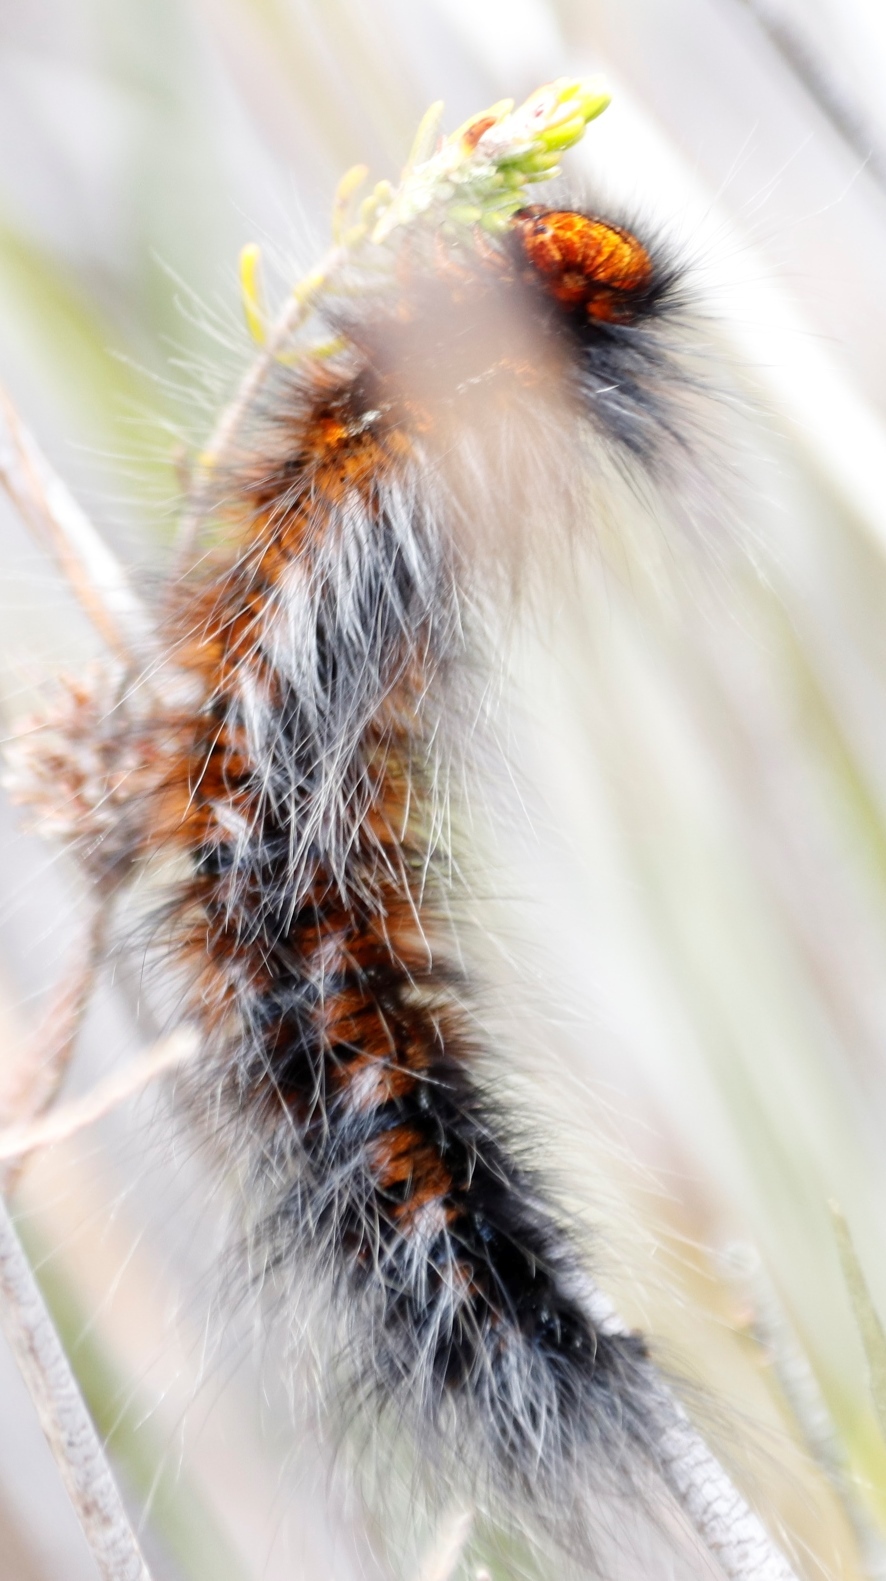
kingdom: Animalia
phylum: Arthropoda
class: Insecta
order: Lepidoptera
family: Lasiocampidae
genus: Mesocelis
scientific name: Mesocelis monticola
